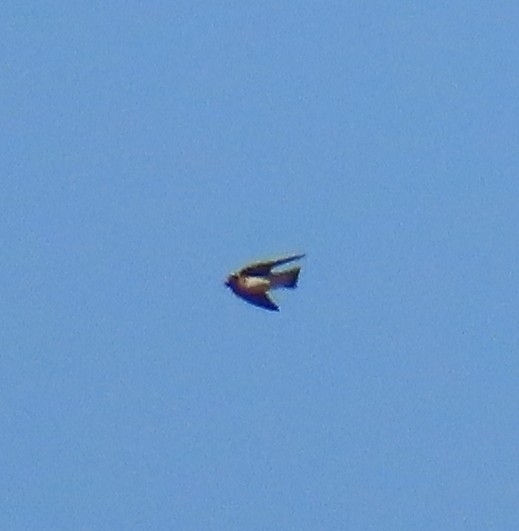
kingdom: Animalia
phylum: Chordata
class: Aves
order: Passeriformes
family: Hirundinidae
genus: Petrochelidon
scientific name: Petrochelidon pyrrhonota
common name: American cliff swallow
